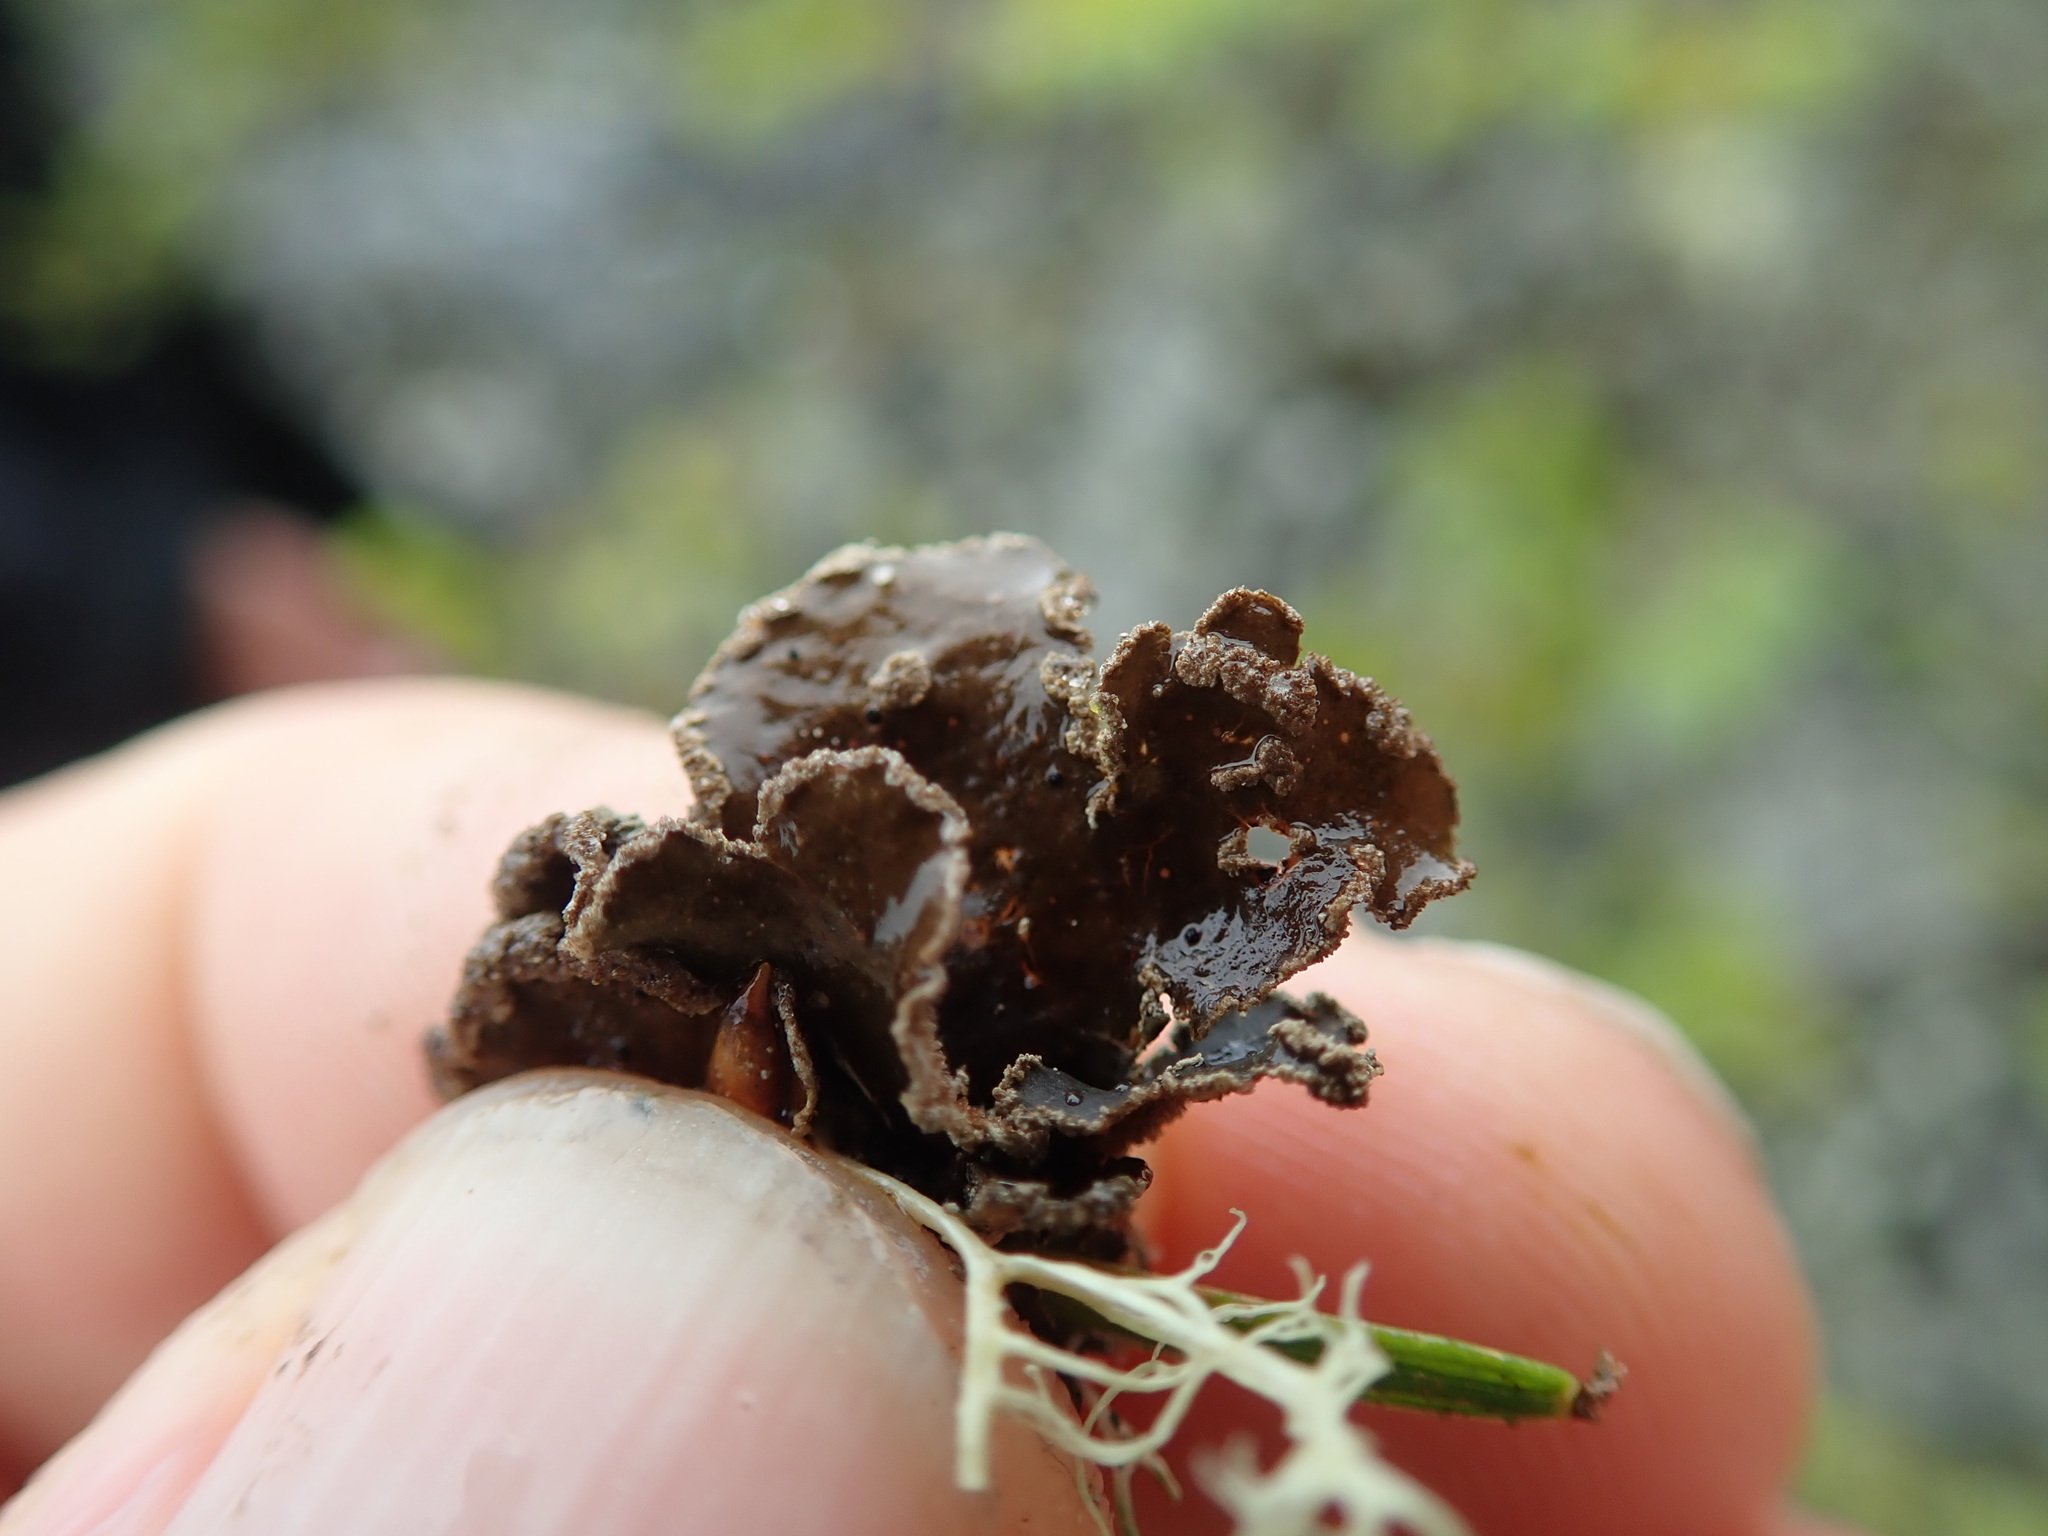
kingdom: Fungi
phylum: Ascomycota
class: Lecanoromycetes
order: Peltigerales
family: Lobariaceae
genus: Sticta
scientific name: Sticta limbata
